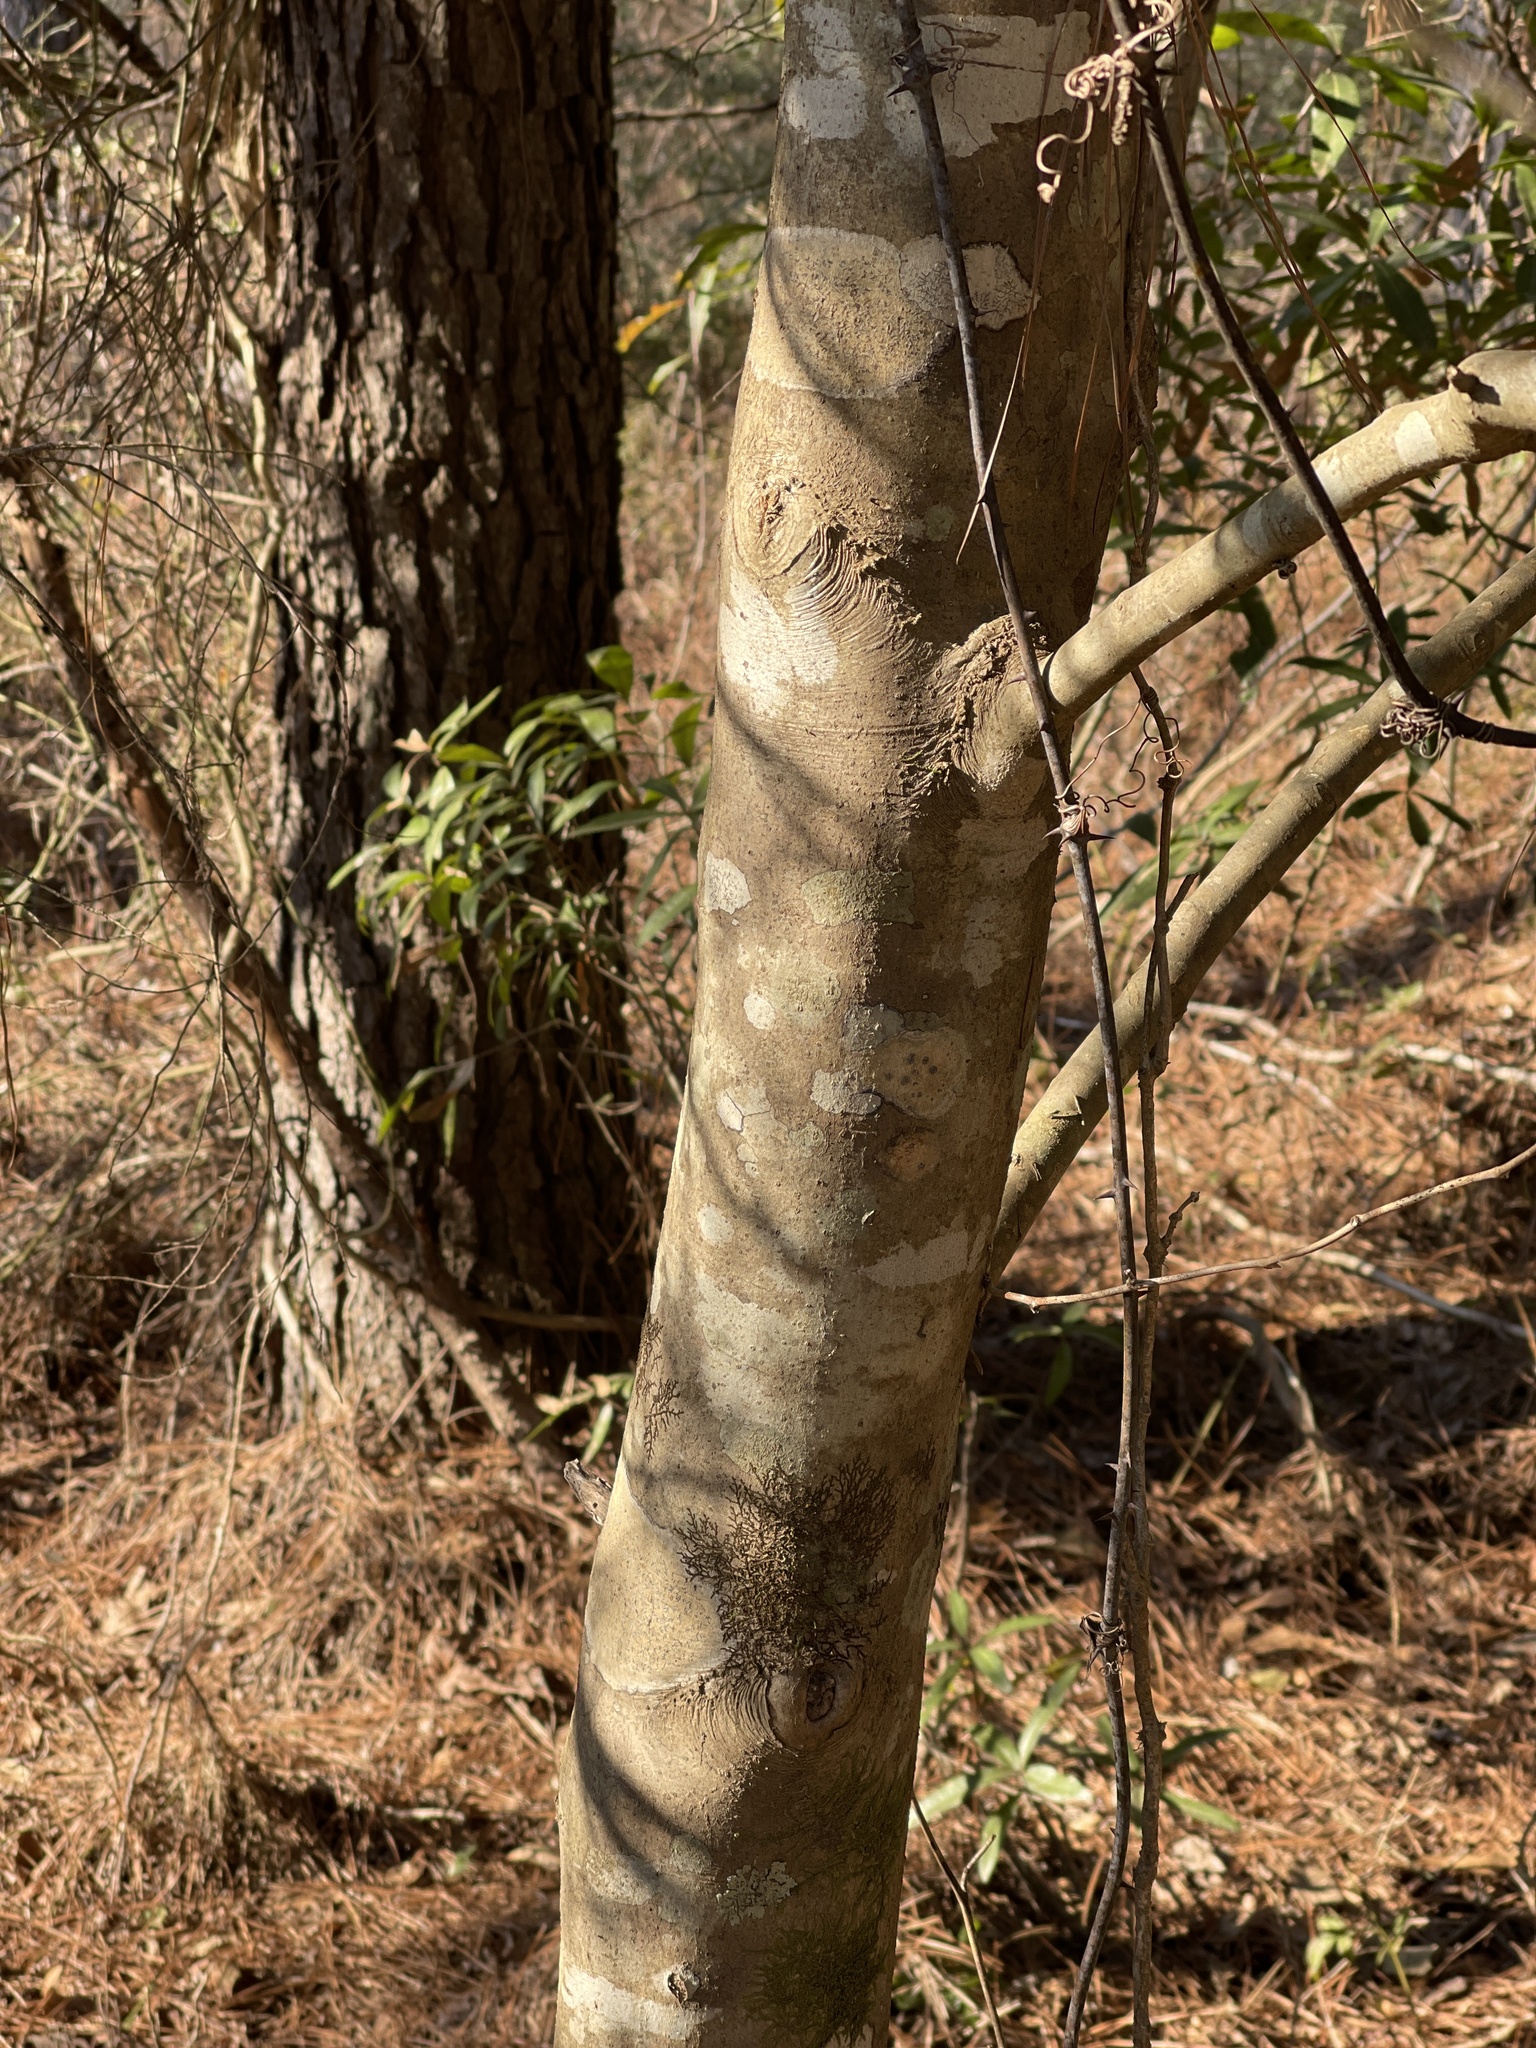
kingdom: Plantae
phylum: Tracheophyta
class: Magnoliopsida
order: Aquifoliales
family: Aquifoliaceae
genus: Ilex
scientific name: Ilex opaca
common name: American holly
